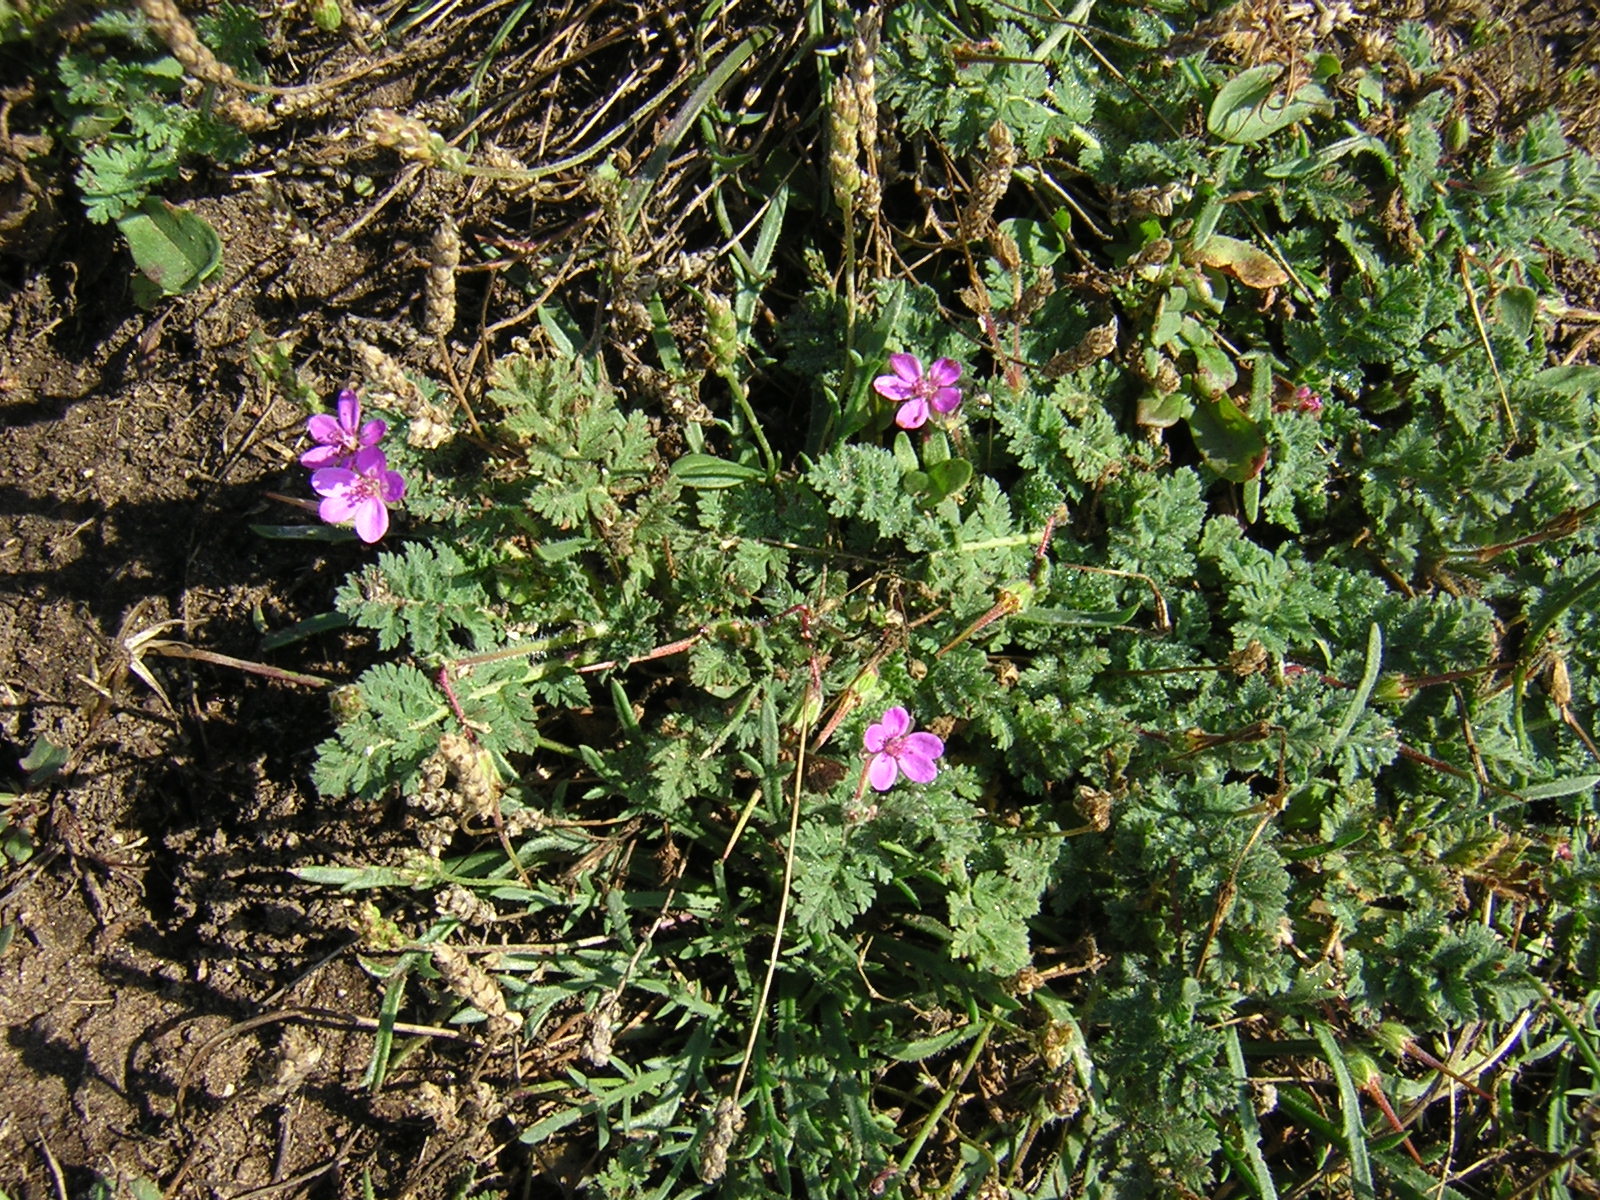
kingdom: Plantae
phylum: Tracheophyta
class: Magnoliopsida
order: Geraniales
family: Geraniaceae
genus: Erodium
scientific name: Erodium cicutarium
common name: Common stork's-bill
